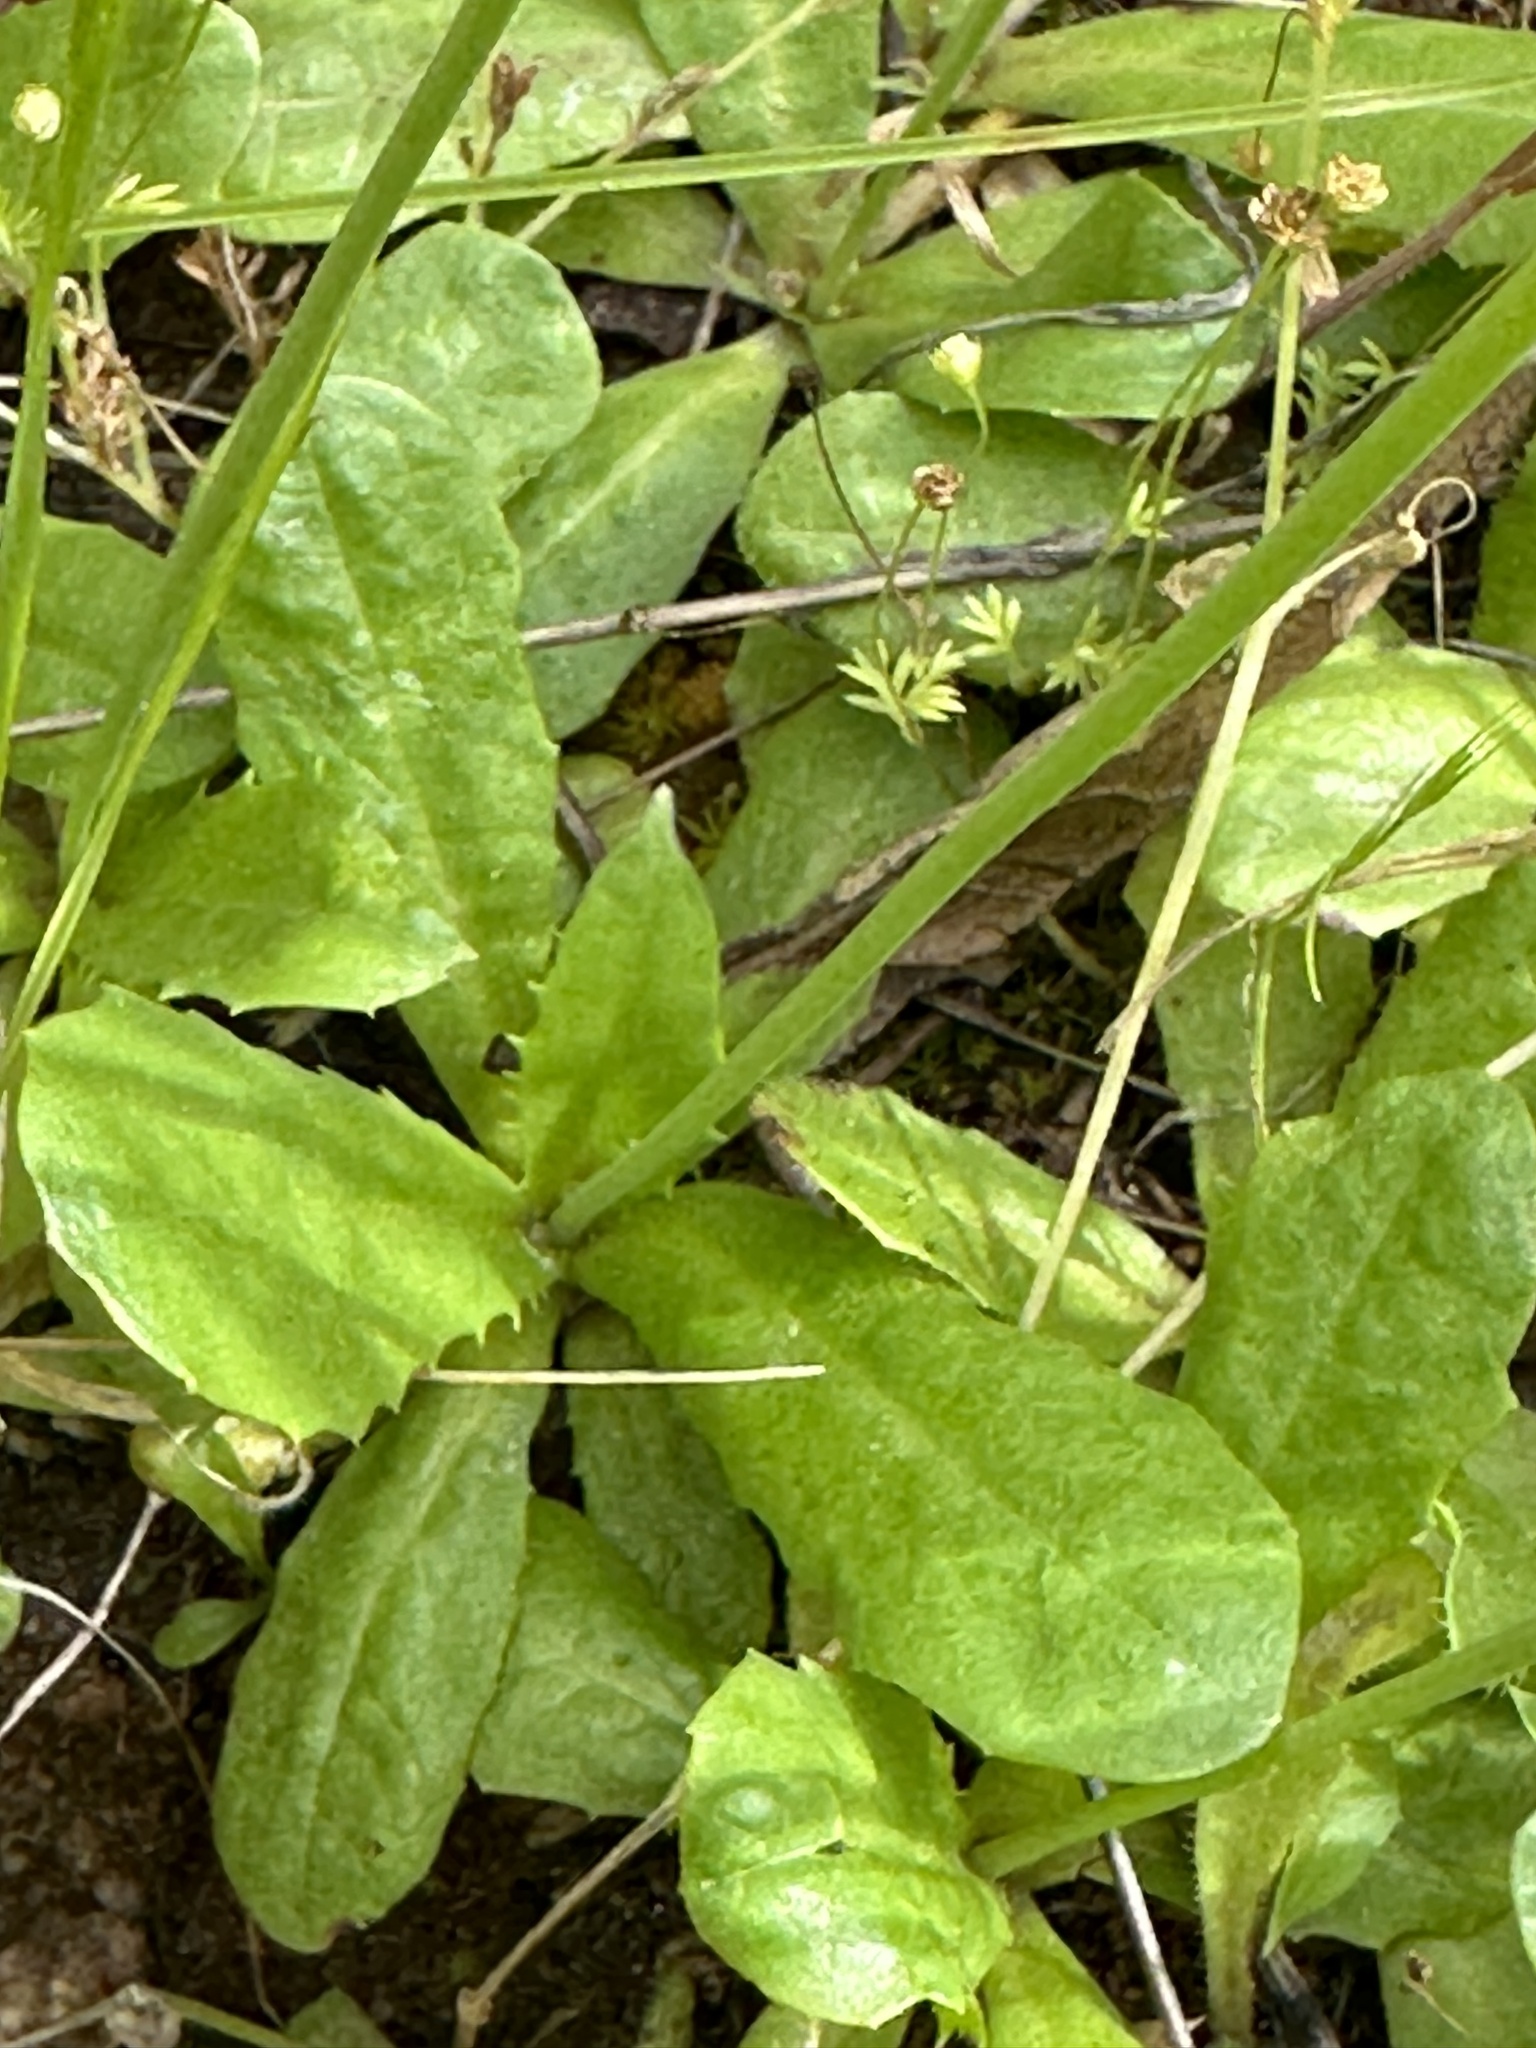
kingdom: Plantae
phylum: Tracheophyta
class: Magnoliopsida
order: Asterales
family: Asteraceae
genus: Hypochaeris
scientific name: Hypochaeris glabra
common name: Smooth catsear
